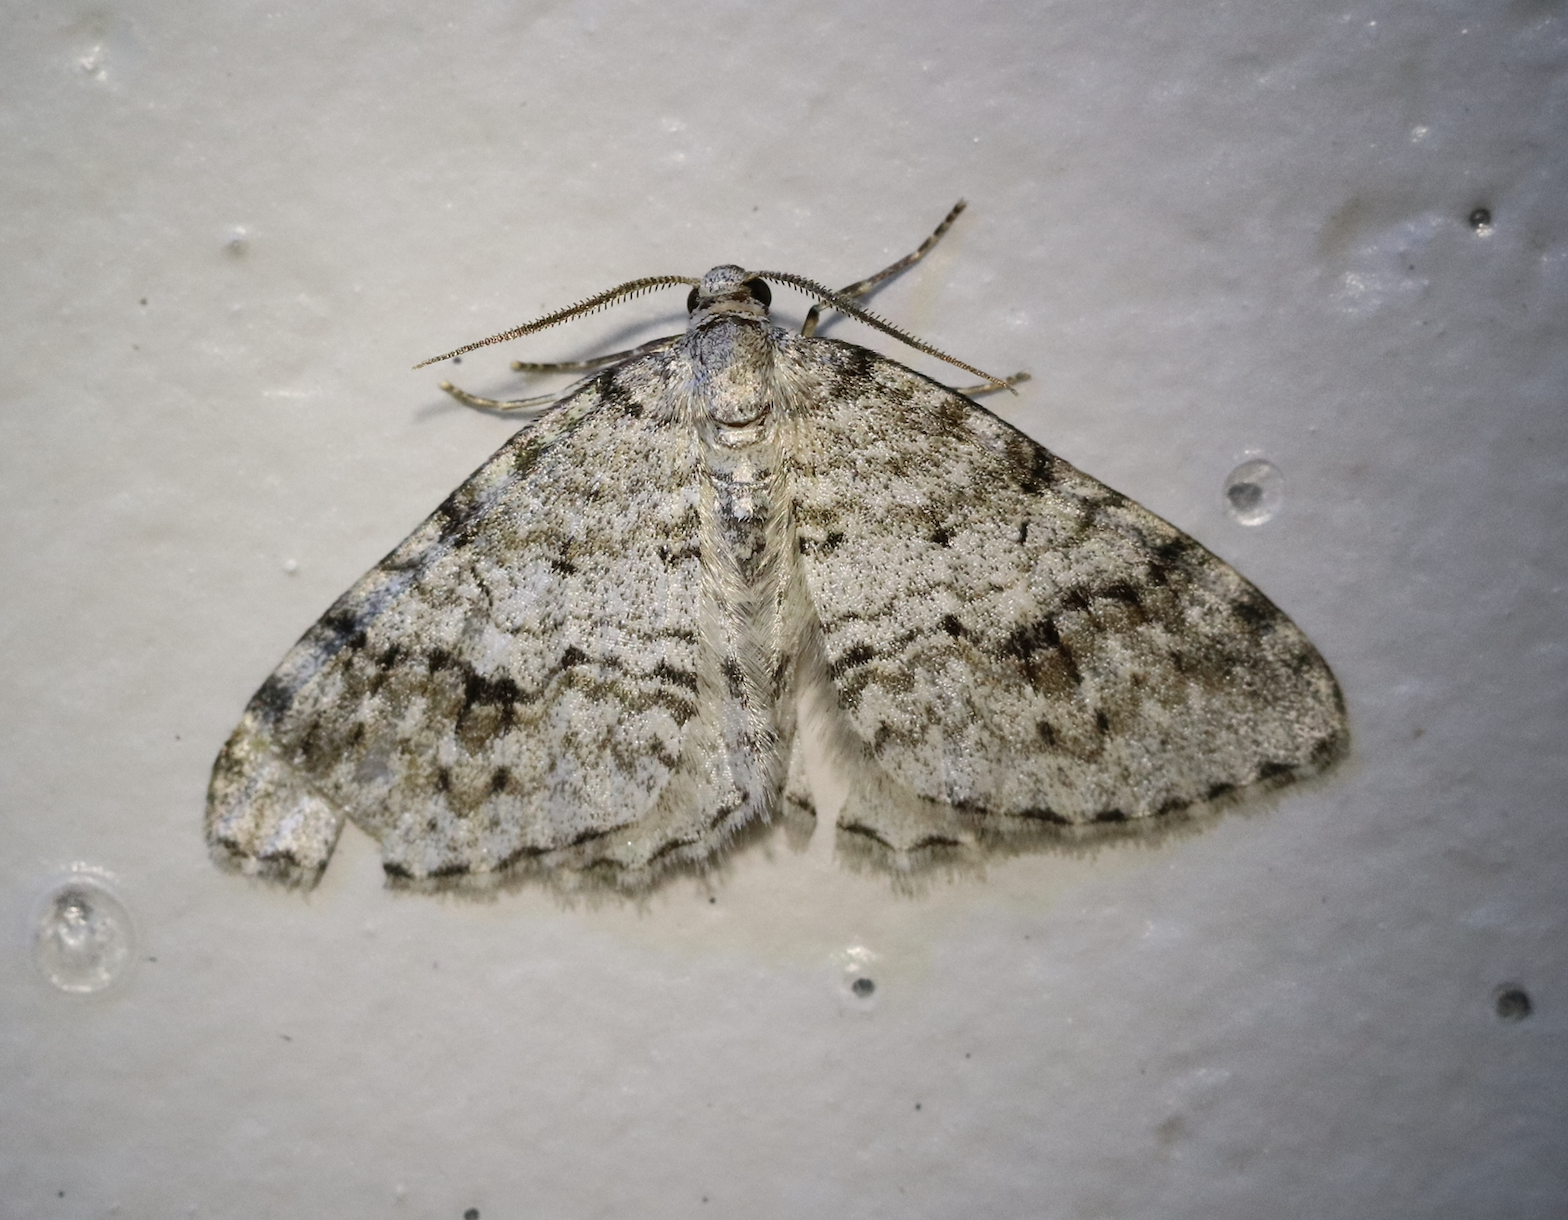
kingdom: Animalia
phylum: Arthropoda
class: Insecta
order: Lepidoptera
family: Geometridae
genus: Venusia
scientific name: Venusia cambrica
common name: Welsh wave
